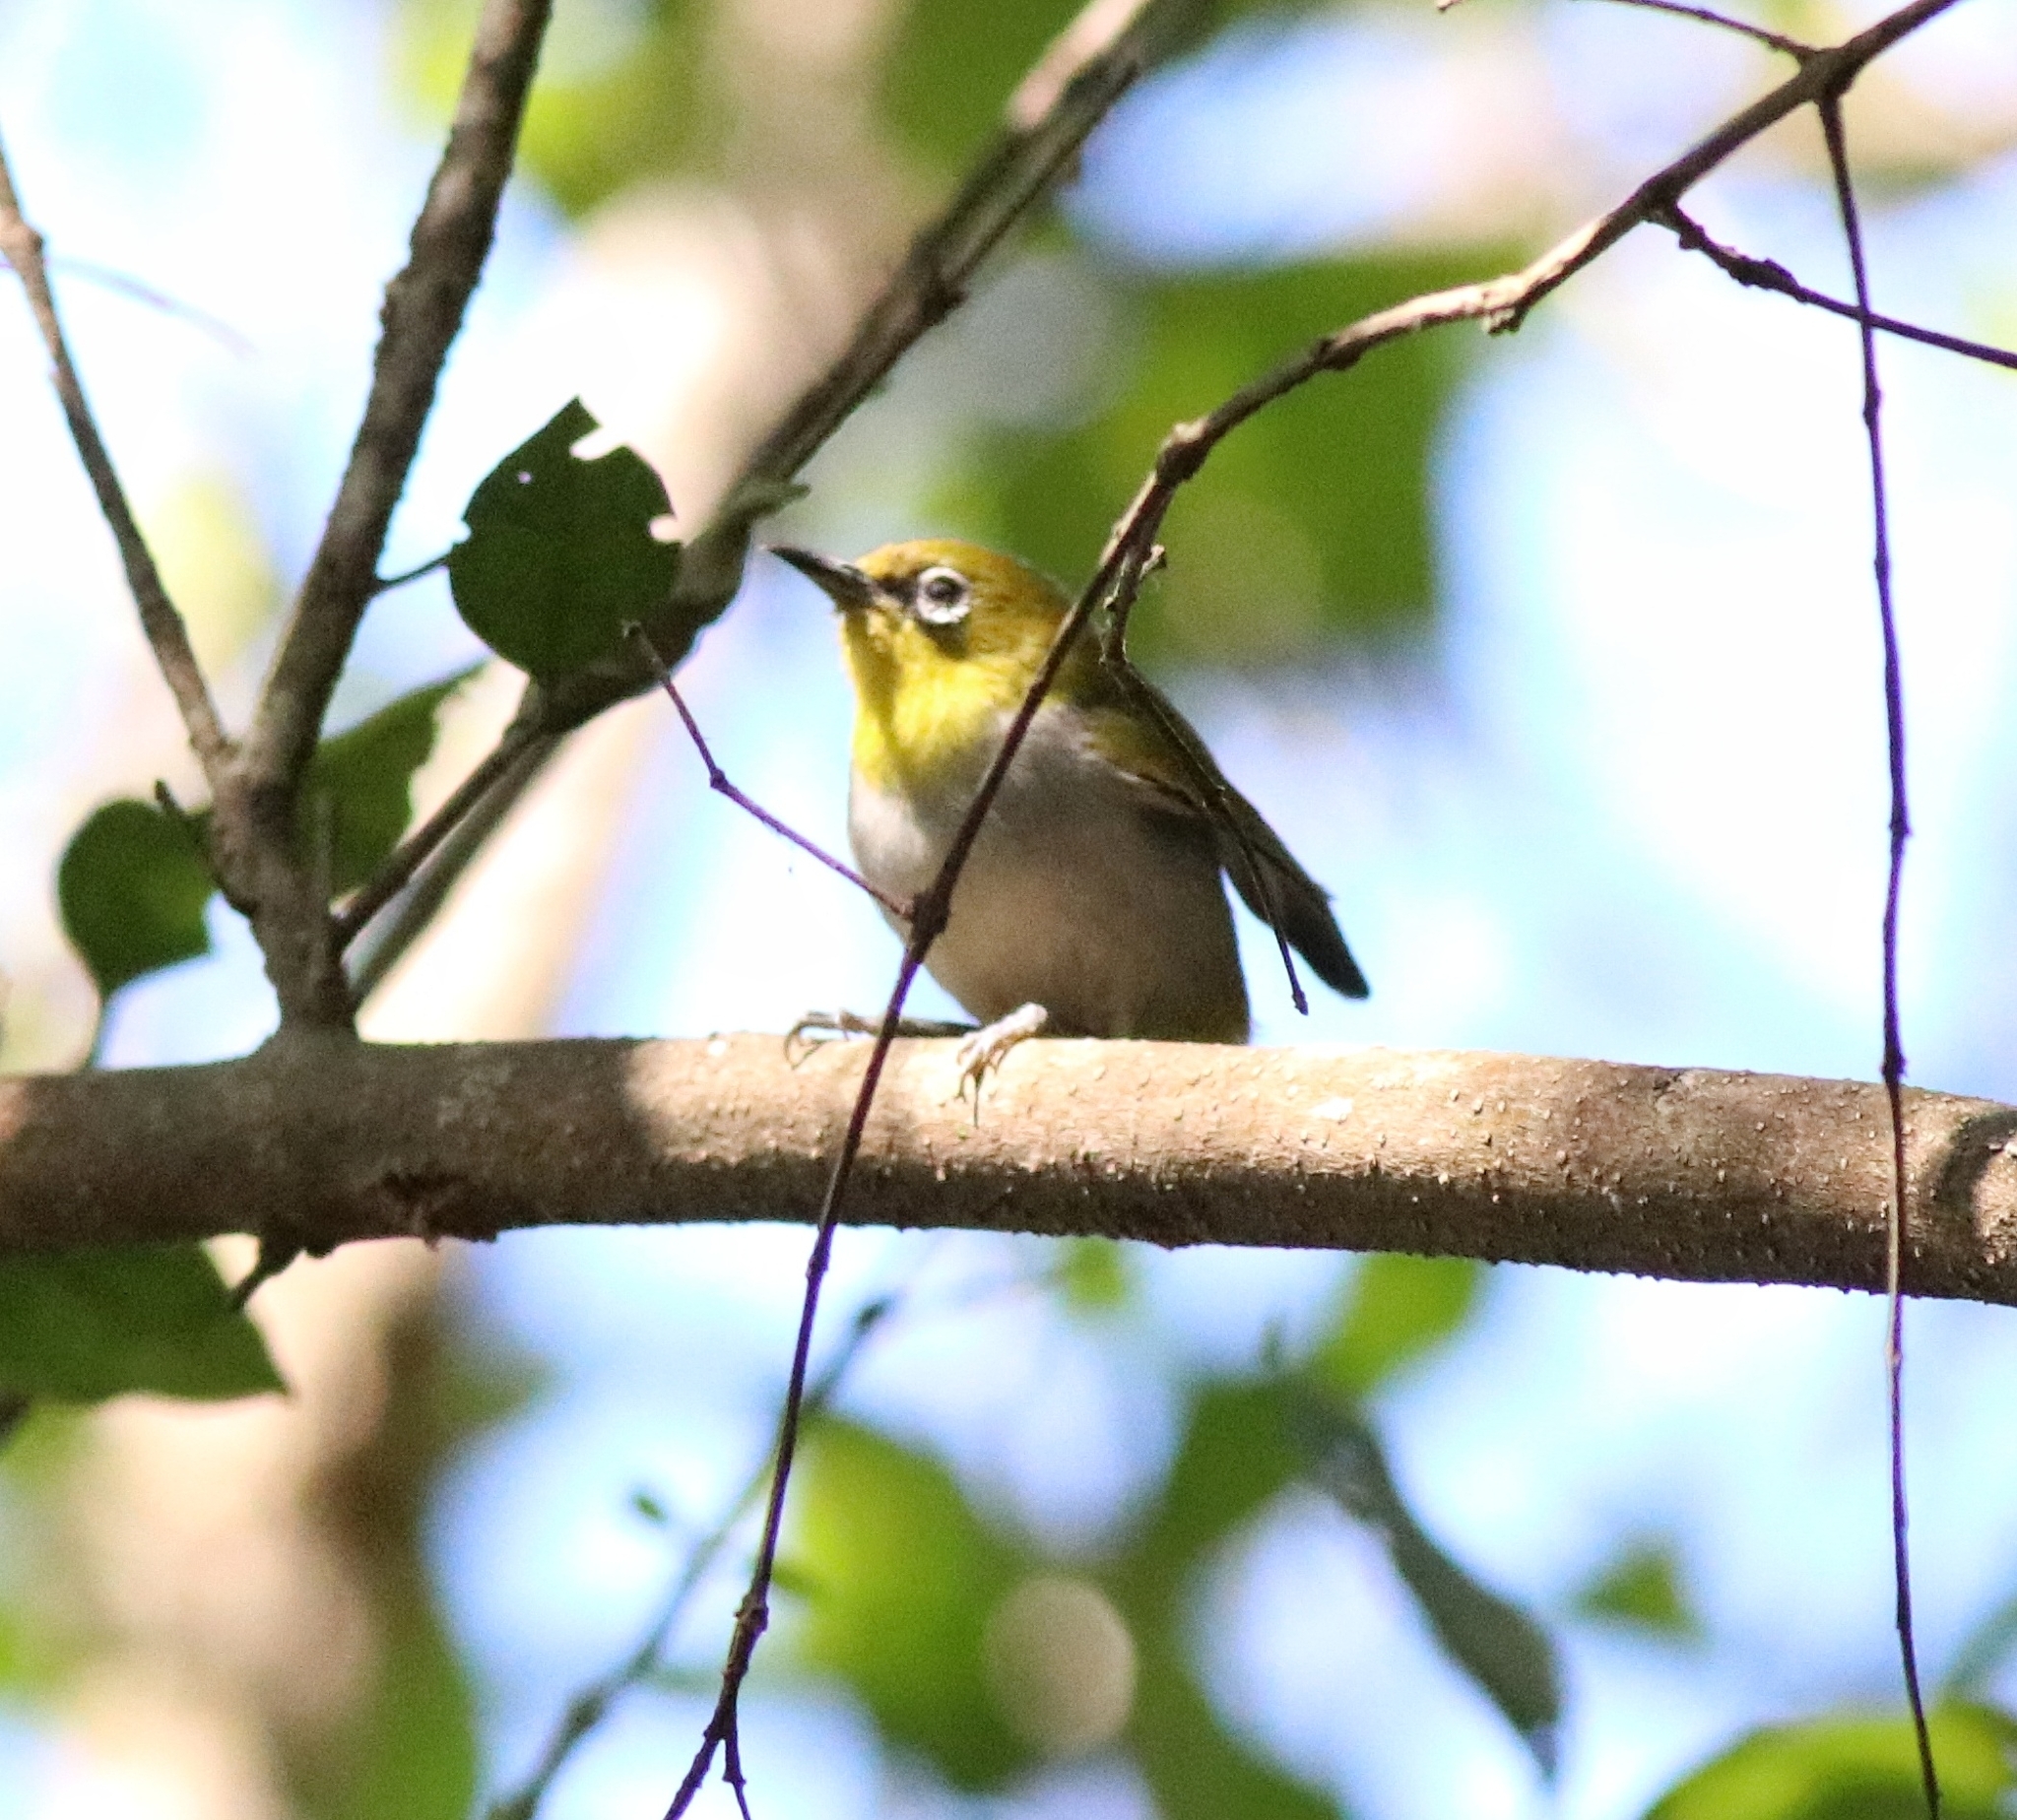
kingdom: Animalia
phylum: Chordata
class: Aves
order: Passeriformes
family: Zosteropidae
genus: Zosterops
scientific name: Zosterops palpebrosus
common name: Oriental white-eye
